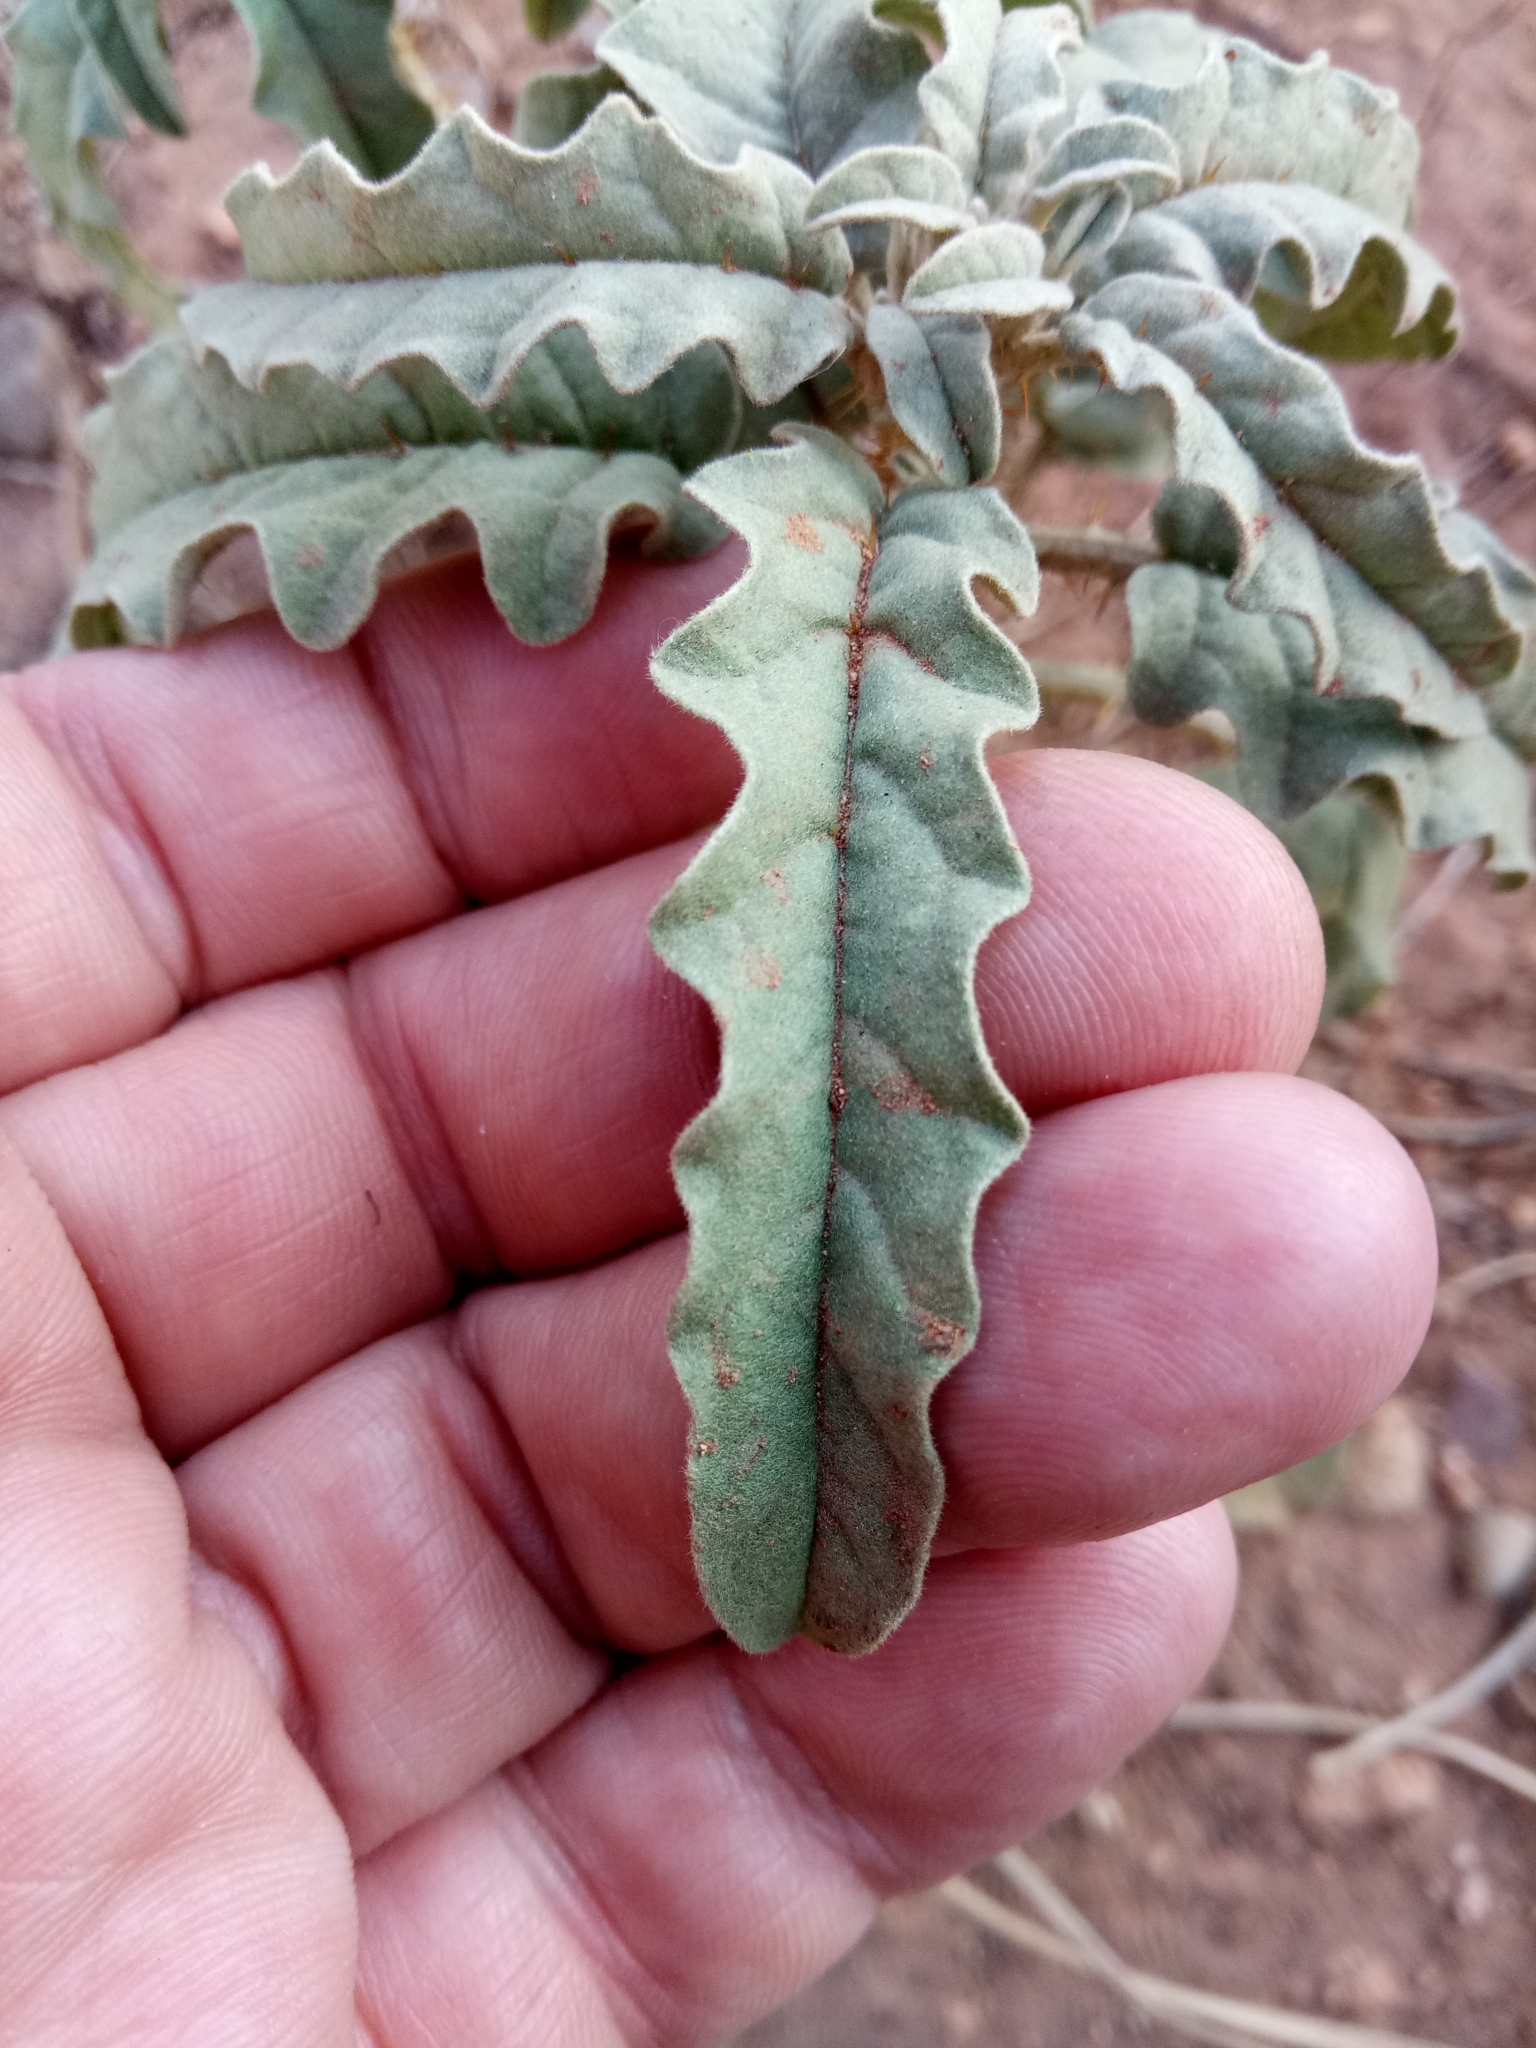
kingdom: Plantae
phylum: Tracheophyta
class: Magnoliopsida
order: Solanales
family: Solanaceae
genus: Solanum
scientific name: Solanum elaeagnifolium
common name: Silverleaf nightshade
